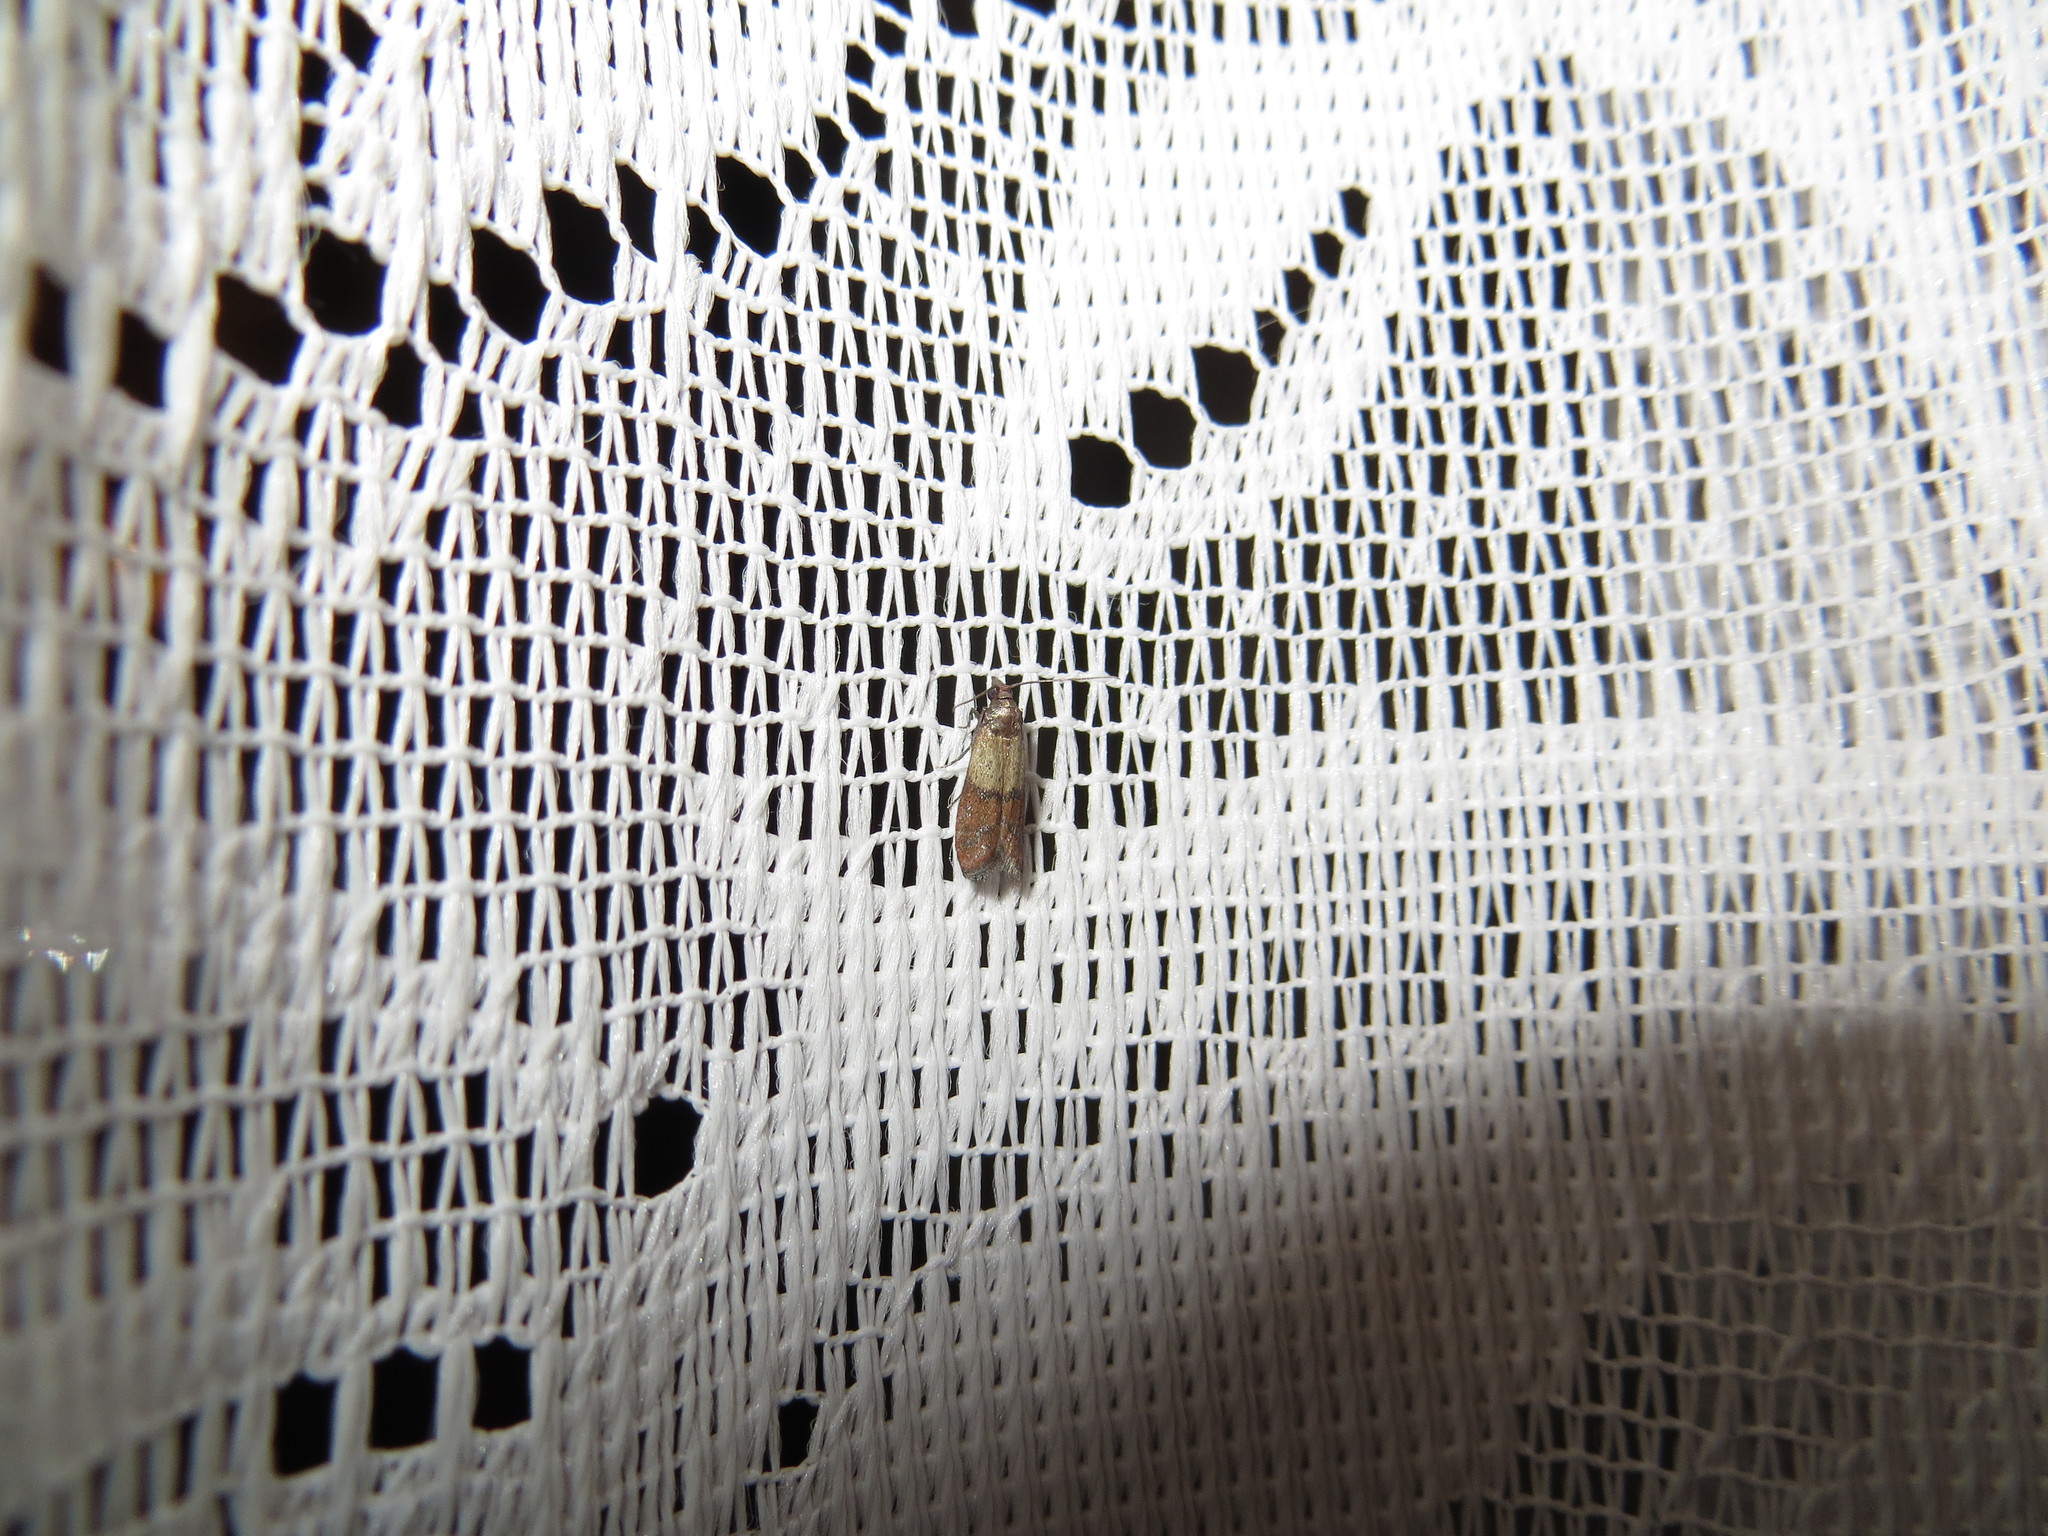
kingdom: Animalia
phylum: Arthropoda
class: Insecta
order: Lepidoptera
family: Pyralidae
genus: Plodia
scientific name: Plodia interpunctella
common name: Indian meal moth
